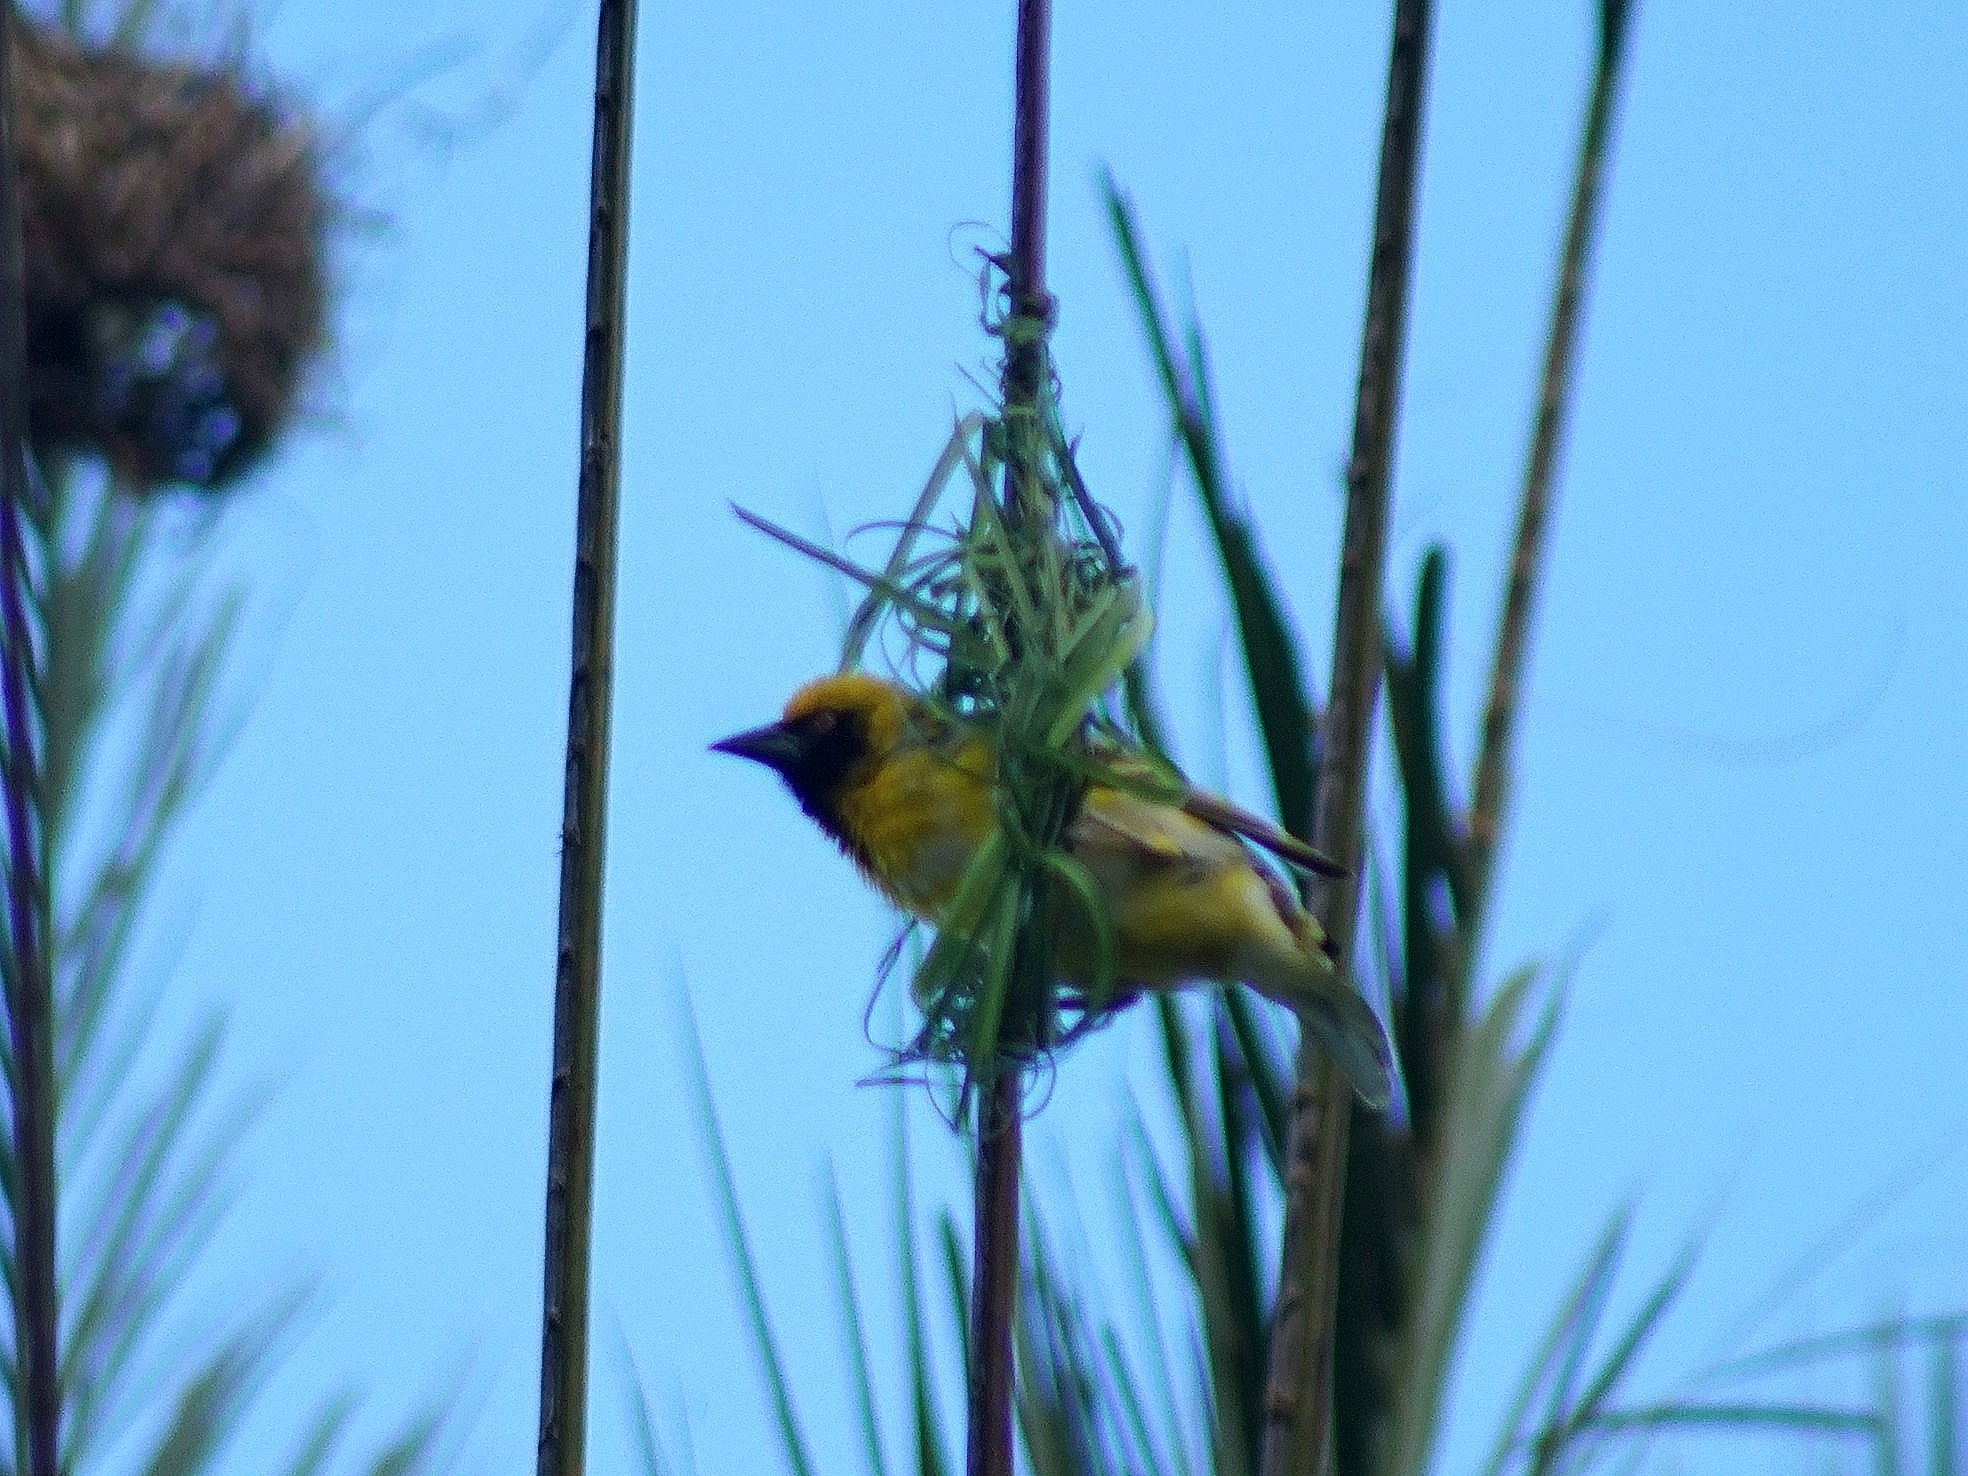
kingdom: Animalia
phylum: Chordata
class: Aves
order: Passeriformes
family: Ploceidae
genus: Ploceus
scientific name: Ploceus cucullatus
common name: Village weaver
